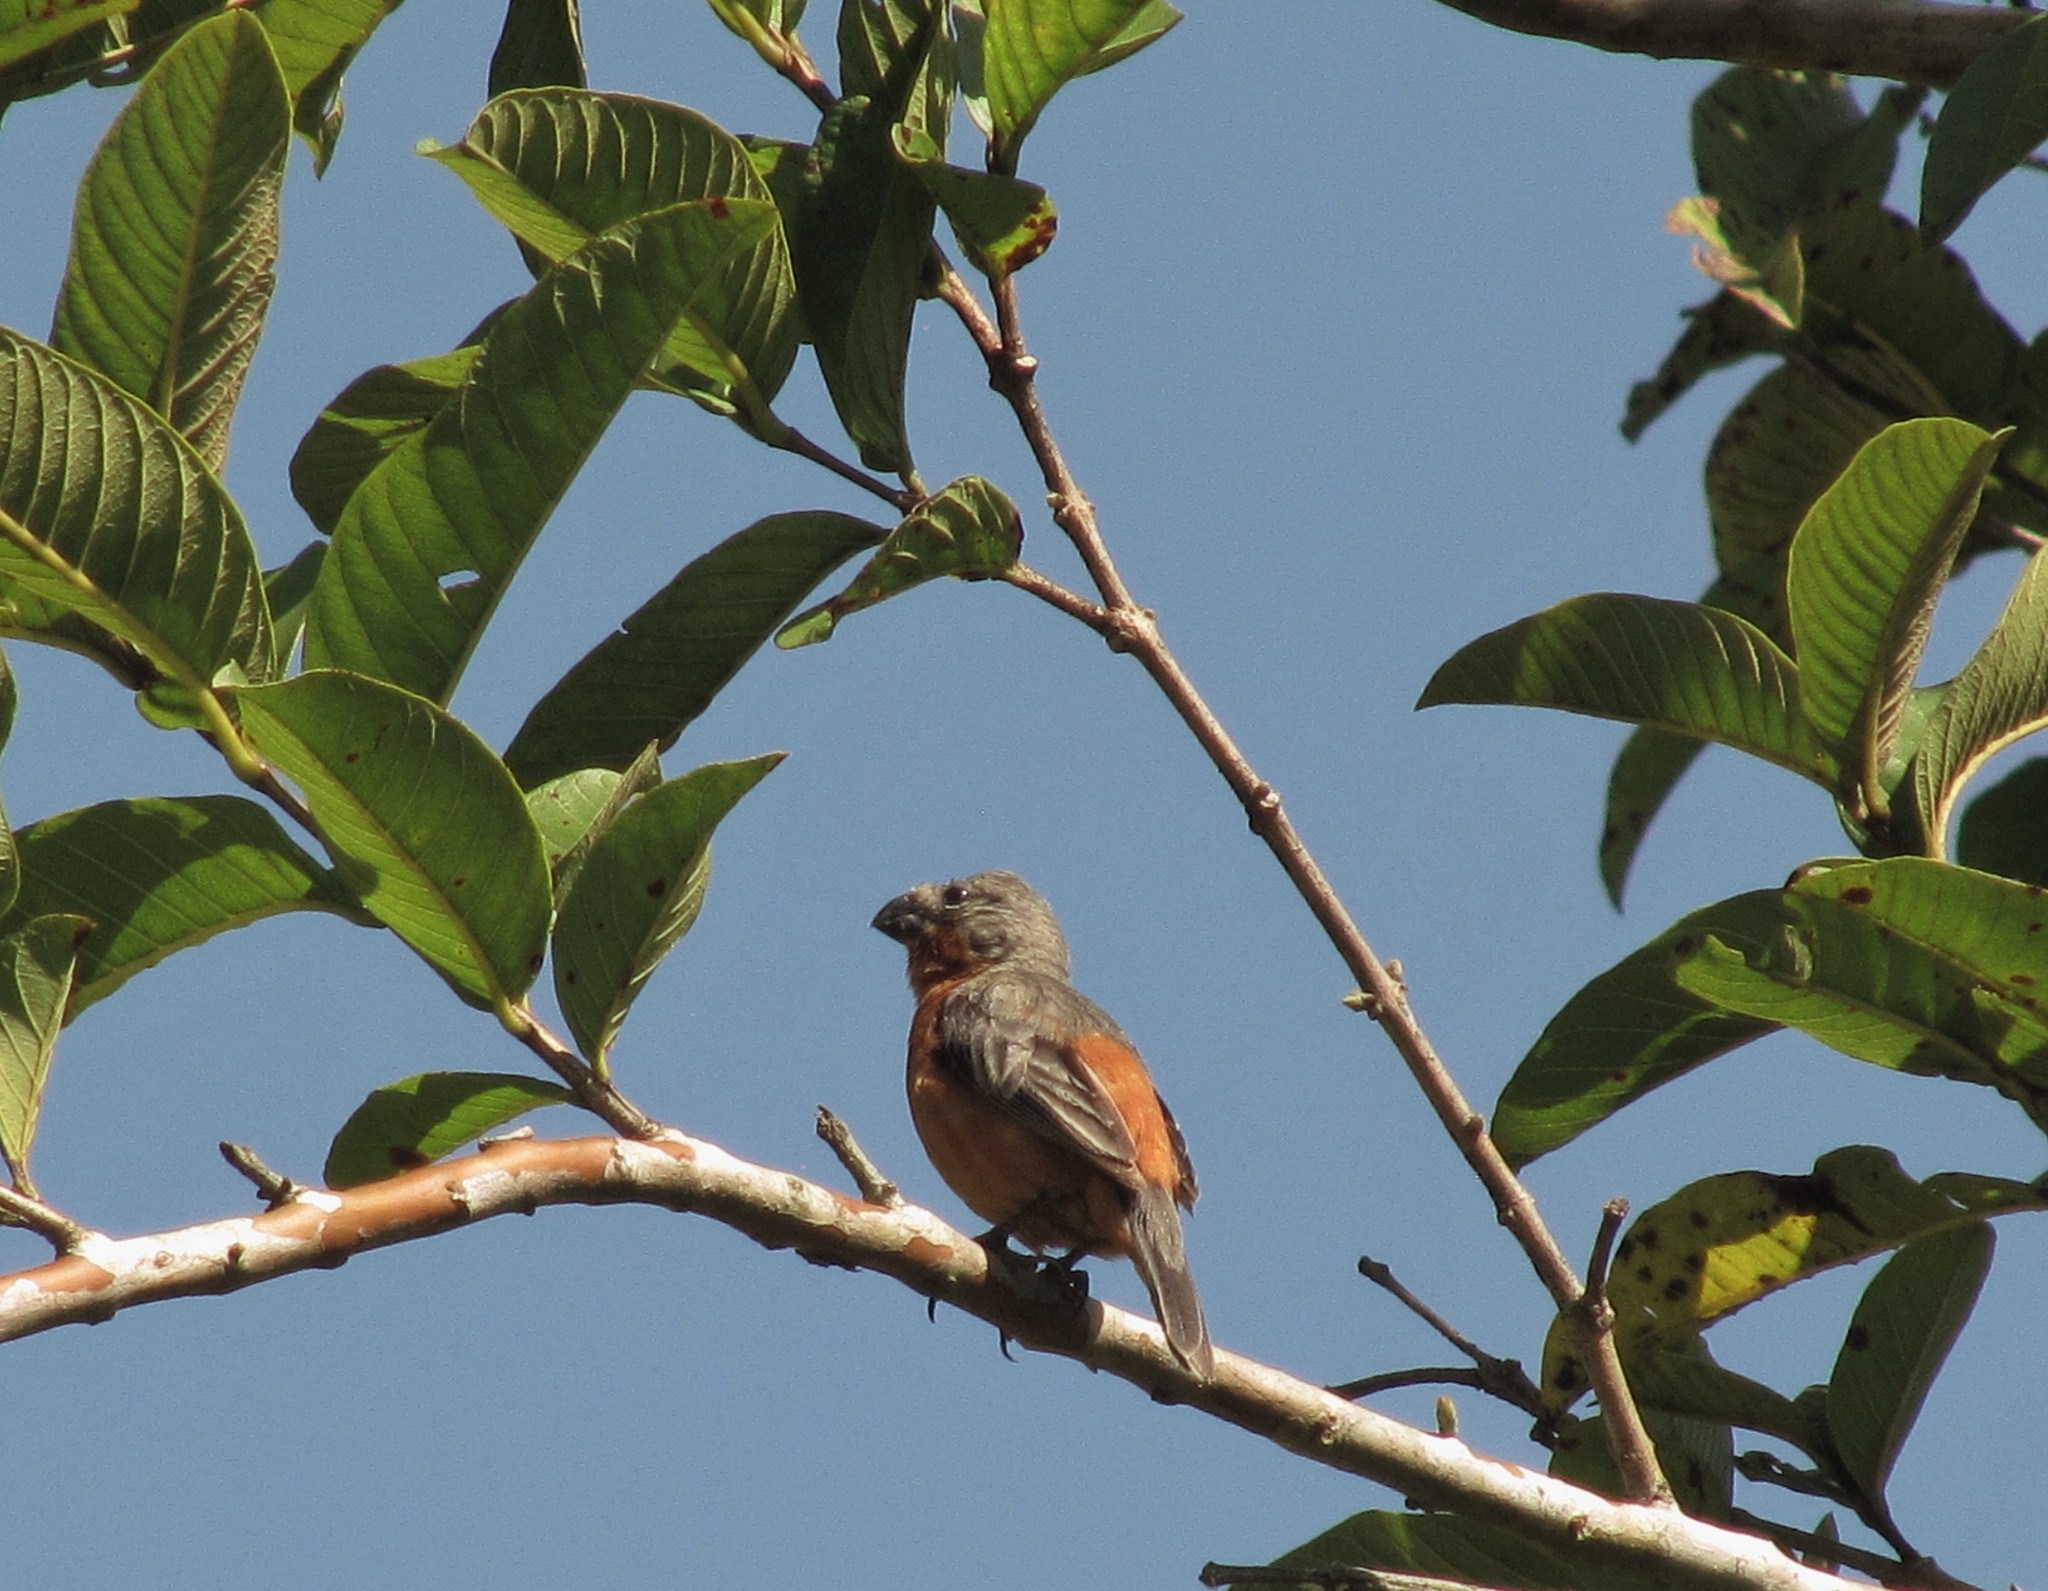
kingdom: Animalia
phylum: Chordata
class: Aves
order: Passeriformes
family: Thraupidae
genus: Sporophila
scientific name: Sporophila minuta
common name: Ruddy-breasted seedeater
